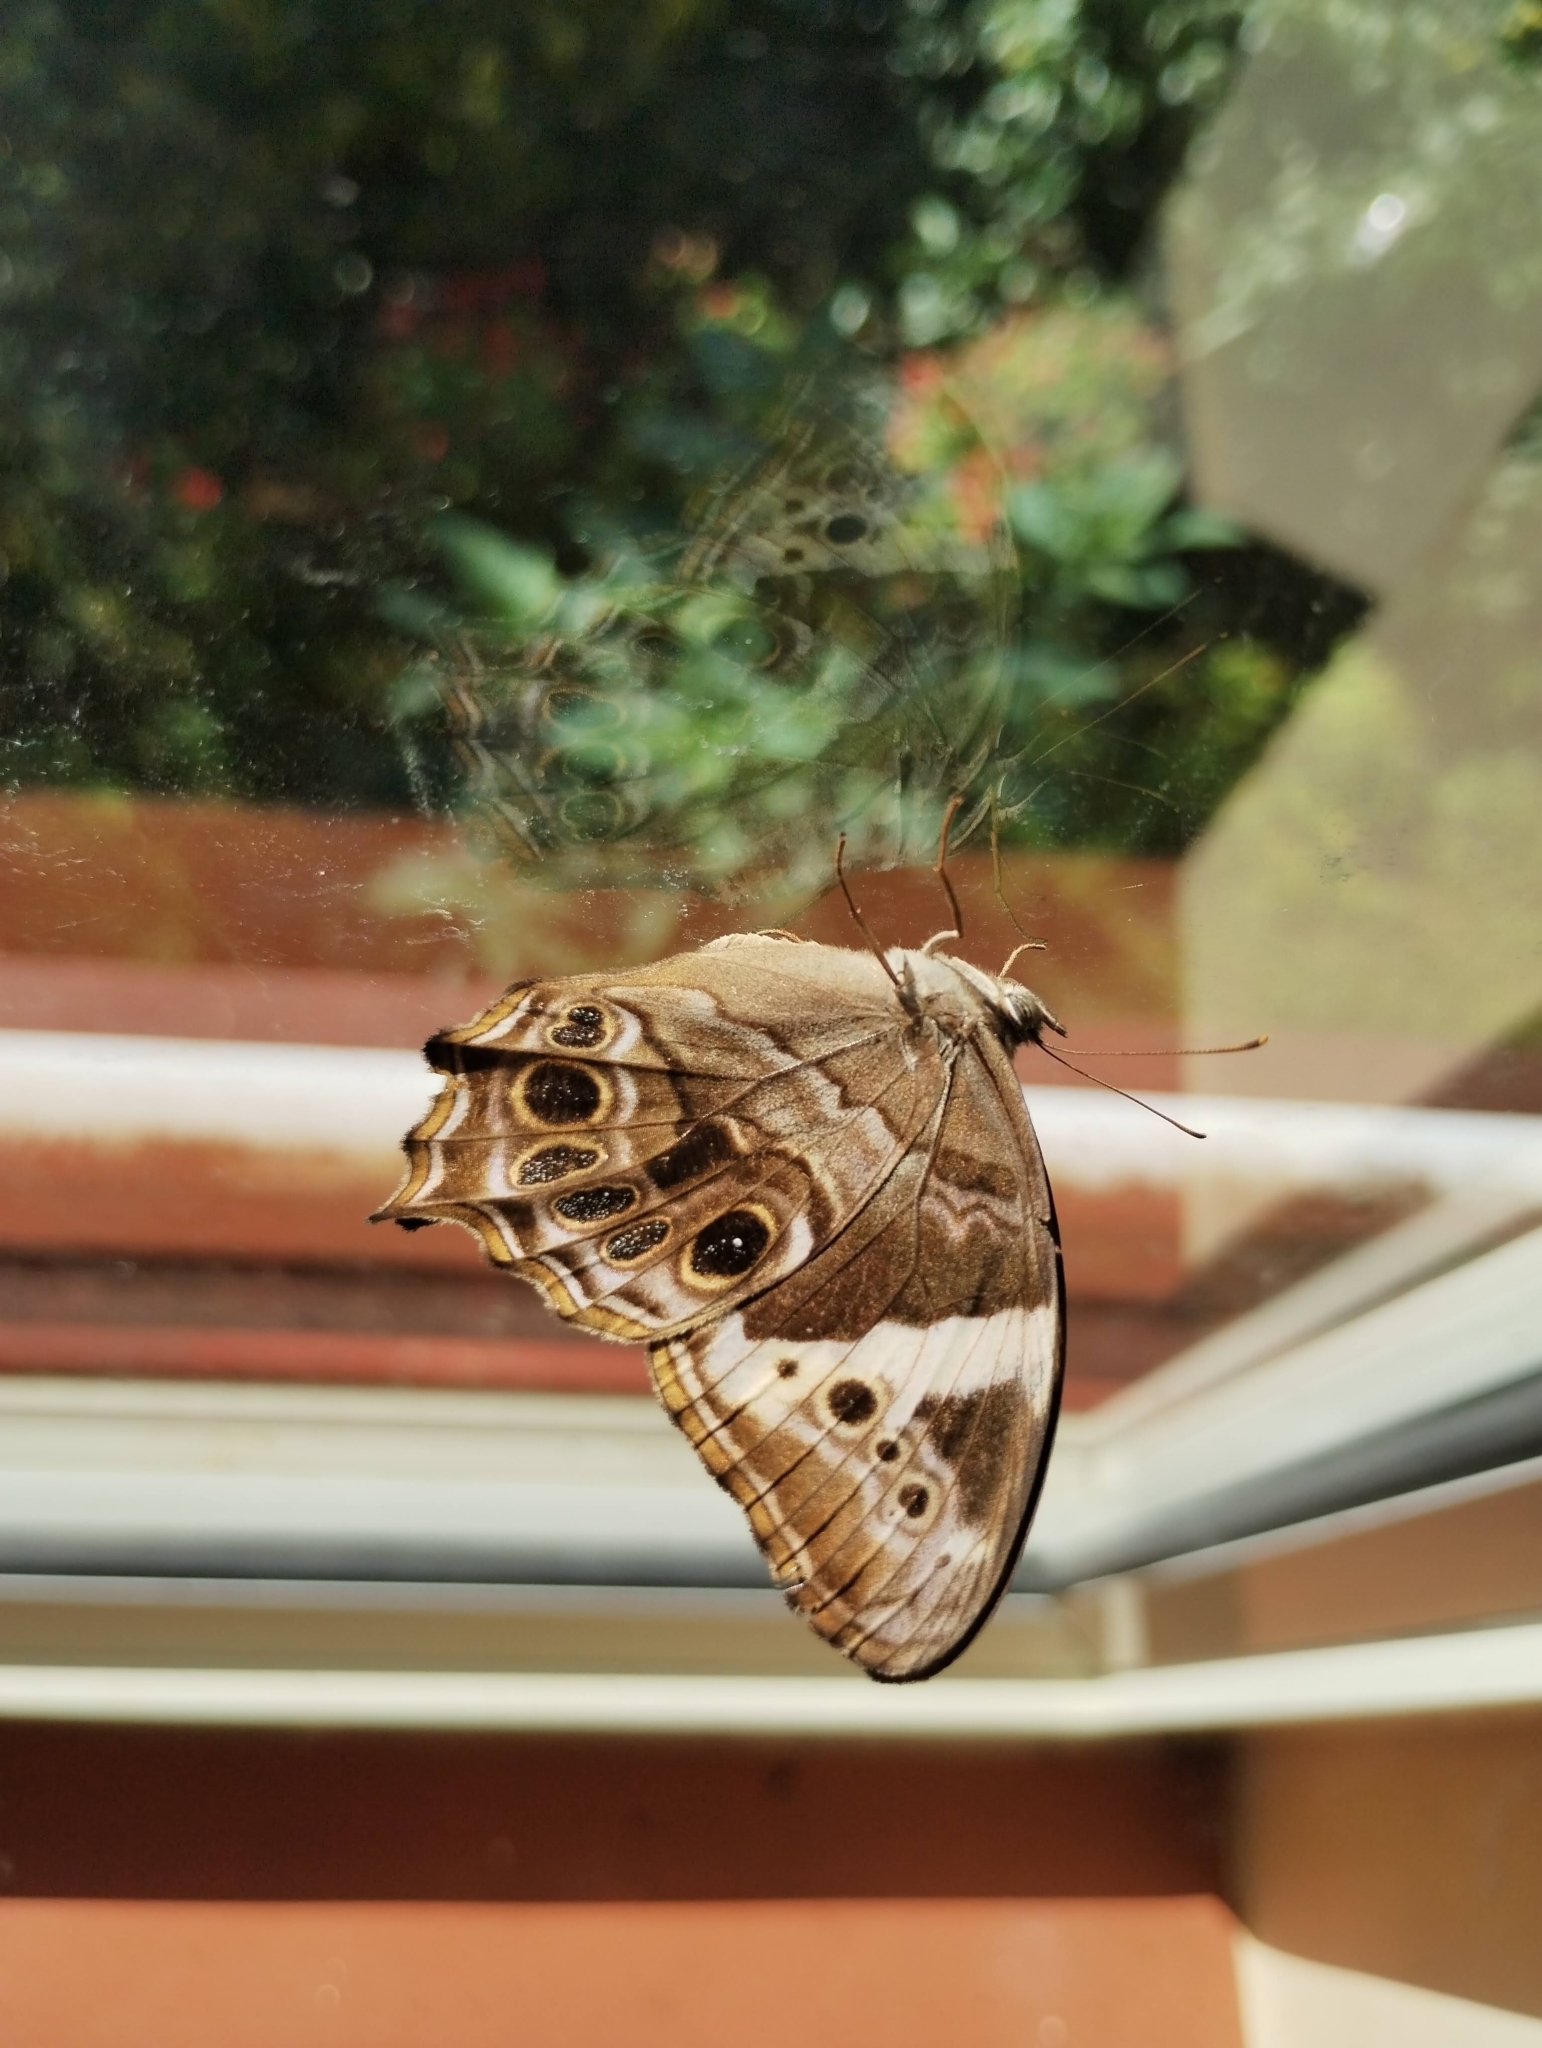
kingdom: Animalia
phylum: Arthropoda
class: Insecta
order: Lepidoptera
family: Nymphalidae
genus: Lethe
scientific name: Lethe drypetis
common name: Tamil treebrown
